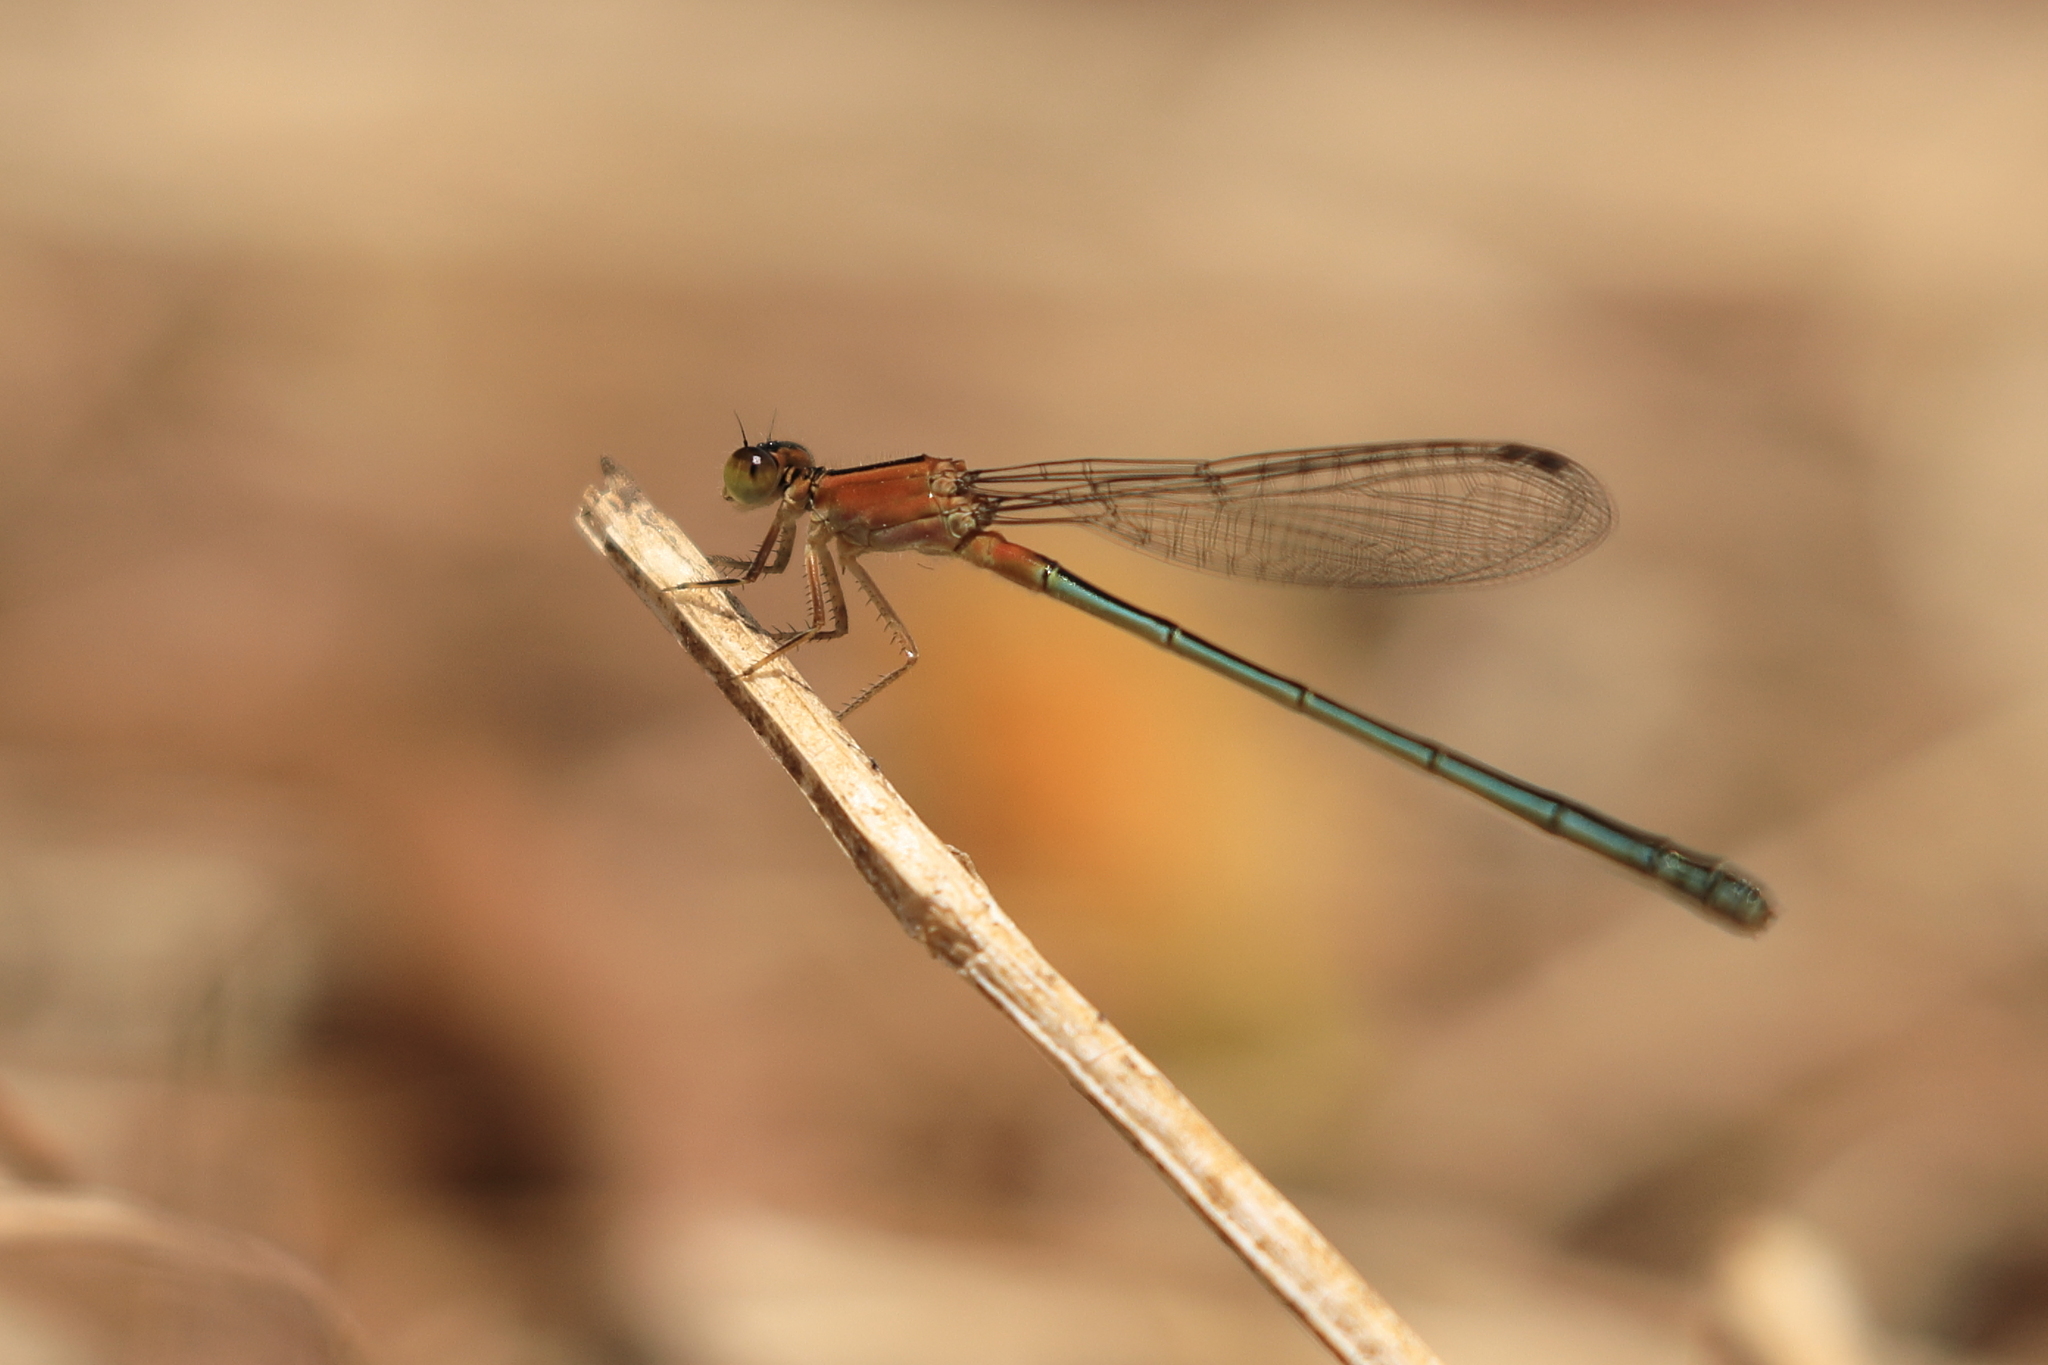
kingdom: Animalia
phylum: Arthropoda
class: Insecta
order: Odonata
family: Coenagrionidae
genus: Ischnura
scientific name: Ischnura senegalensis
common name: Tropical bluetail
